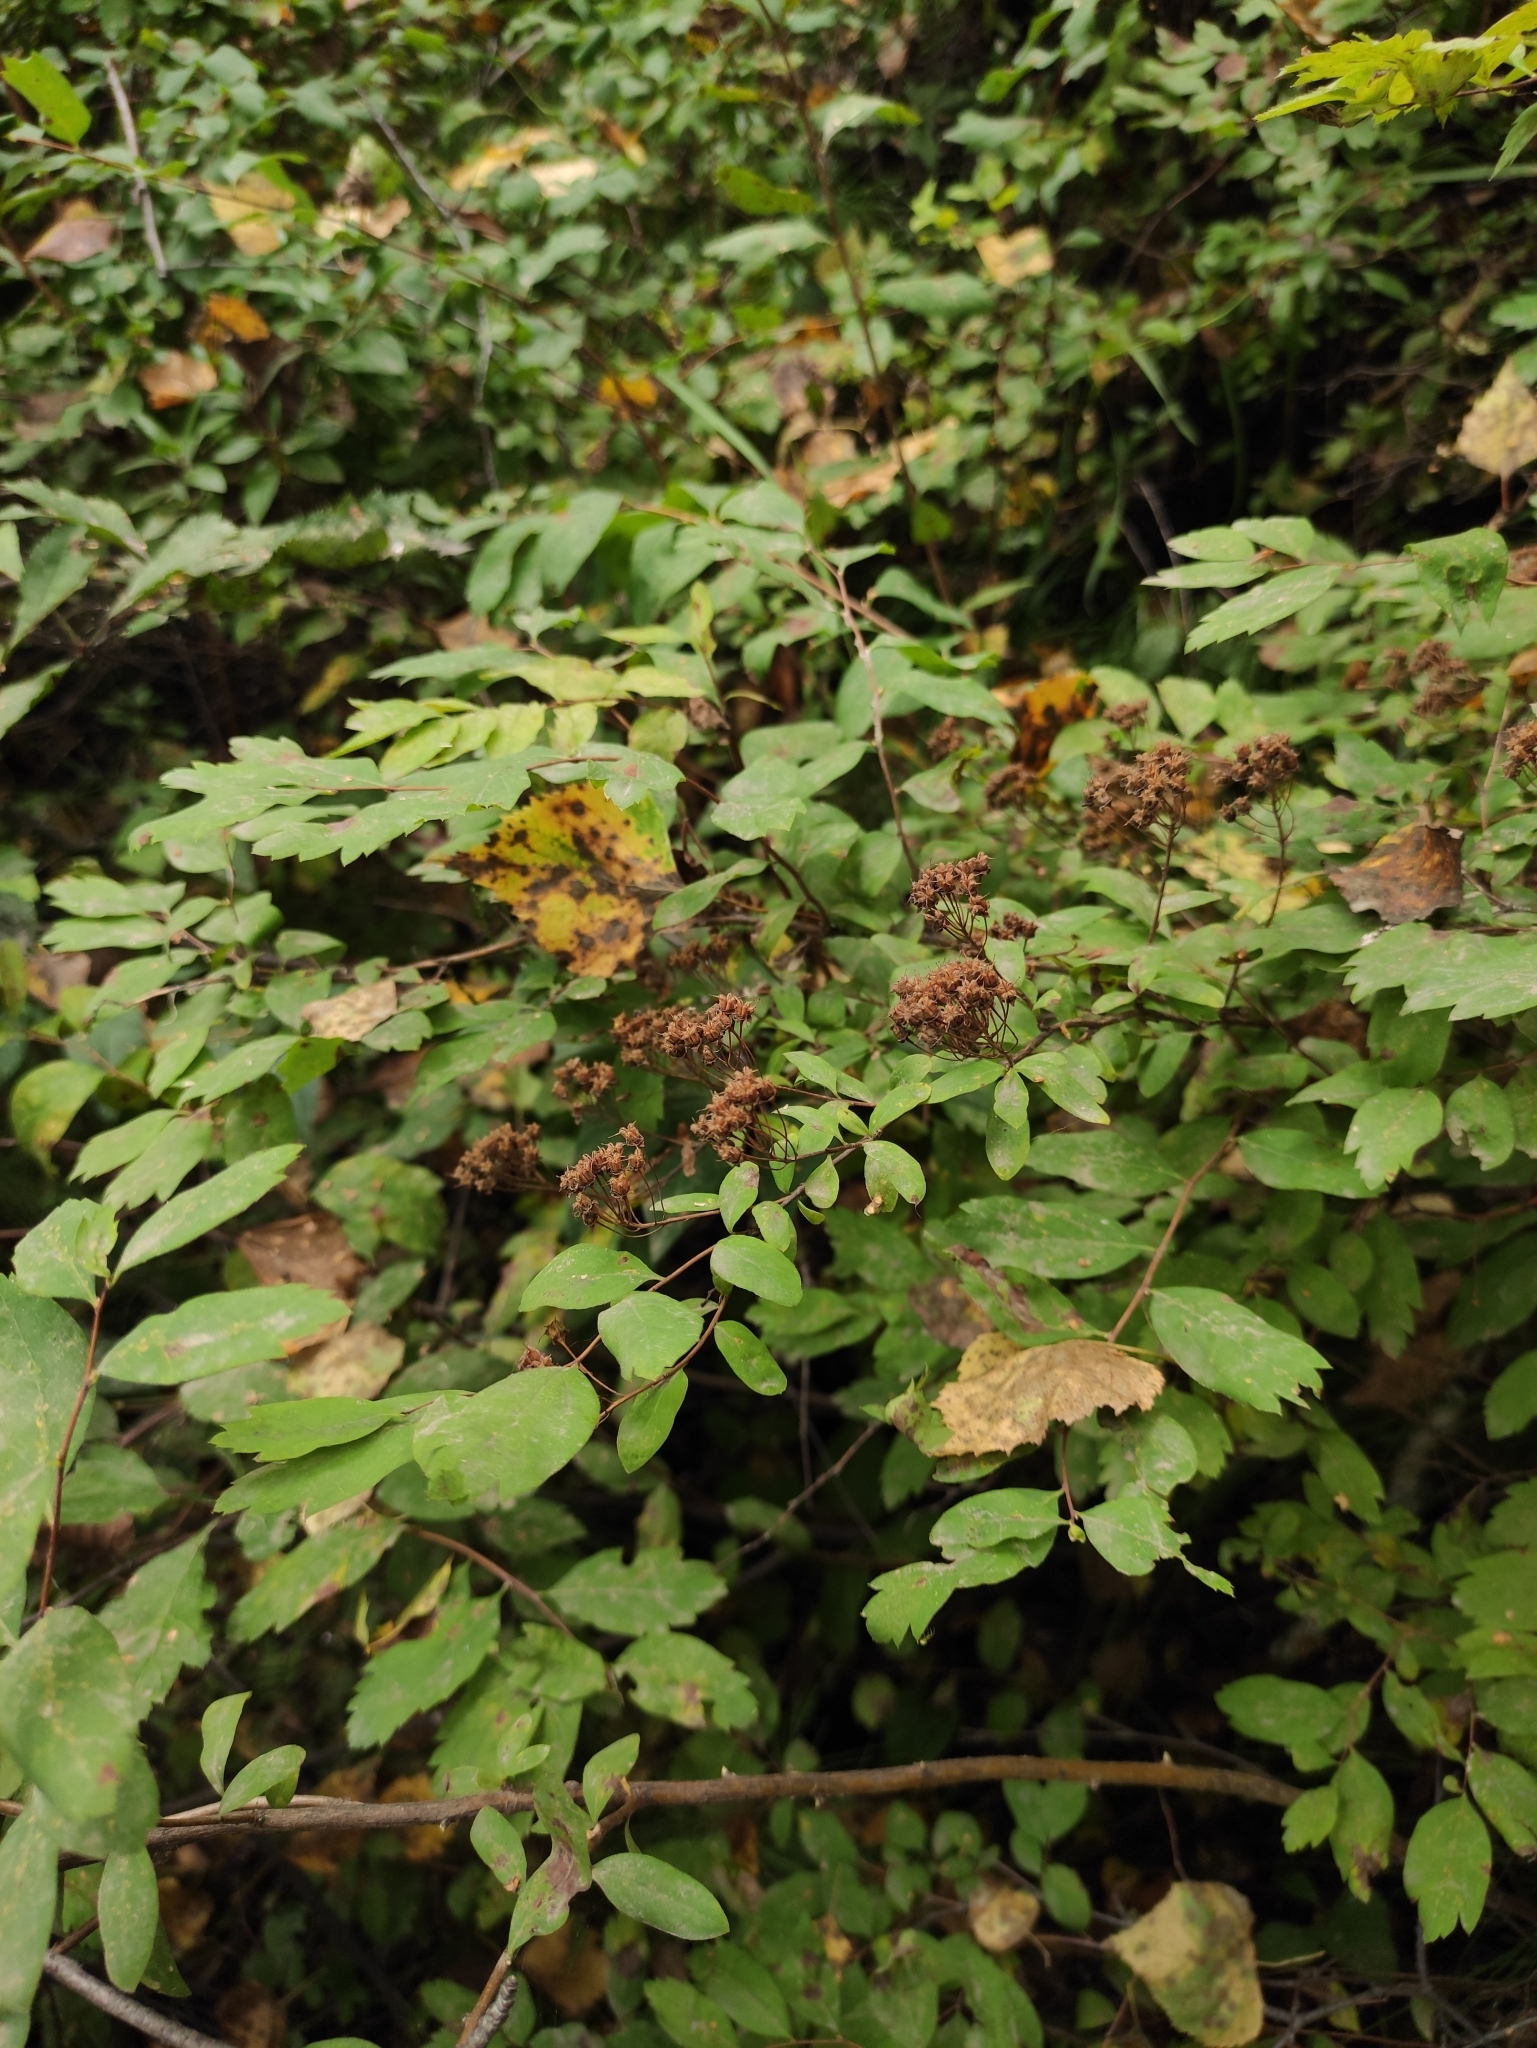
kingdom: Plantae
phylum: Tracheophyta
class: Magnoliopsida
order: Rosales
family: Rosaceae
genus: Spiraea
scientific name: Spiraea media
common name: Russian spiraea
